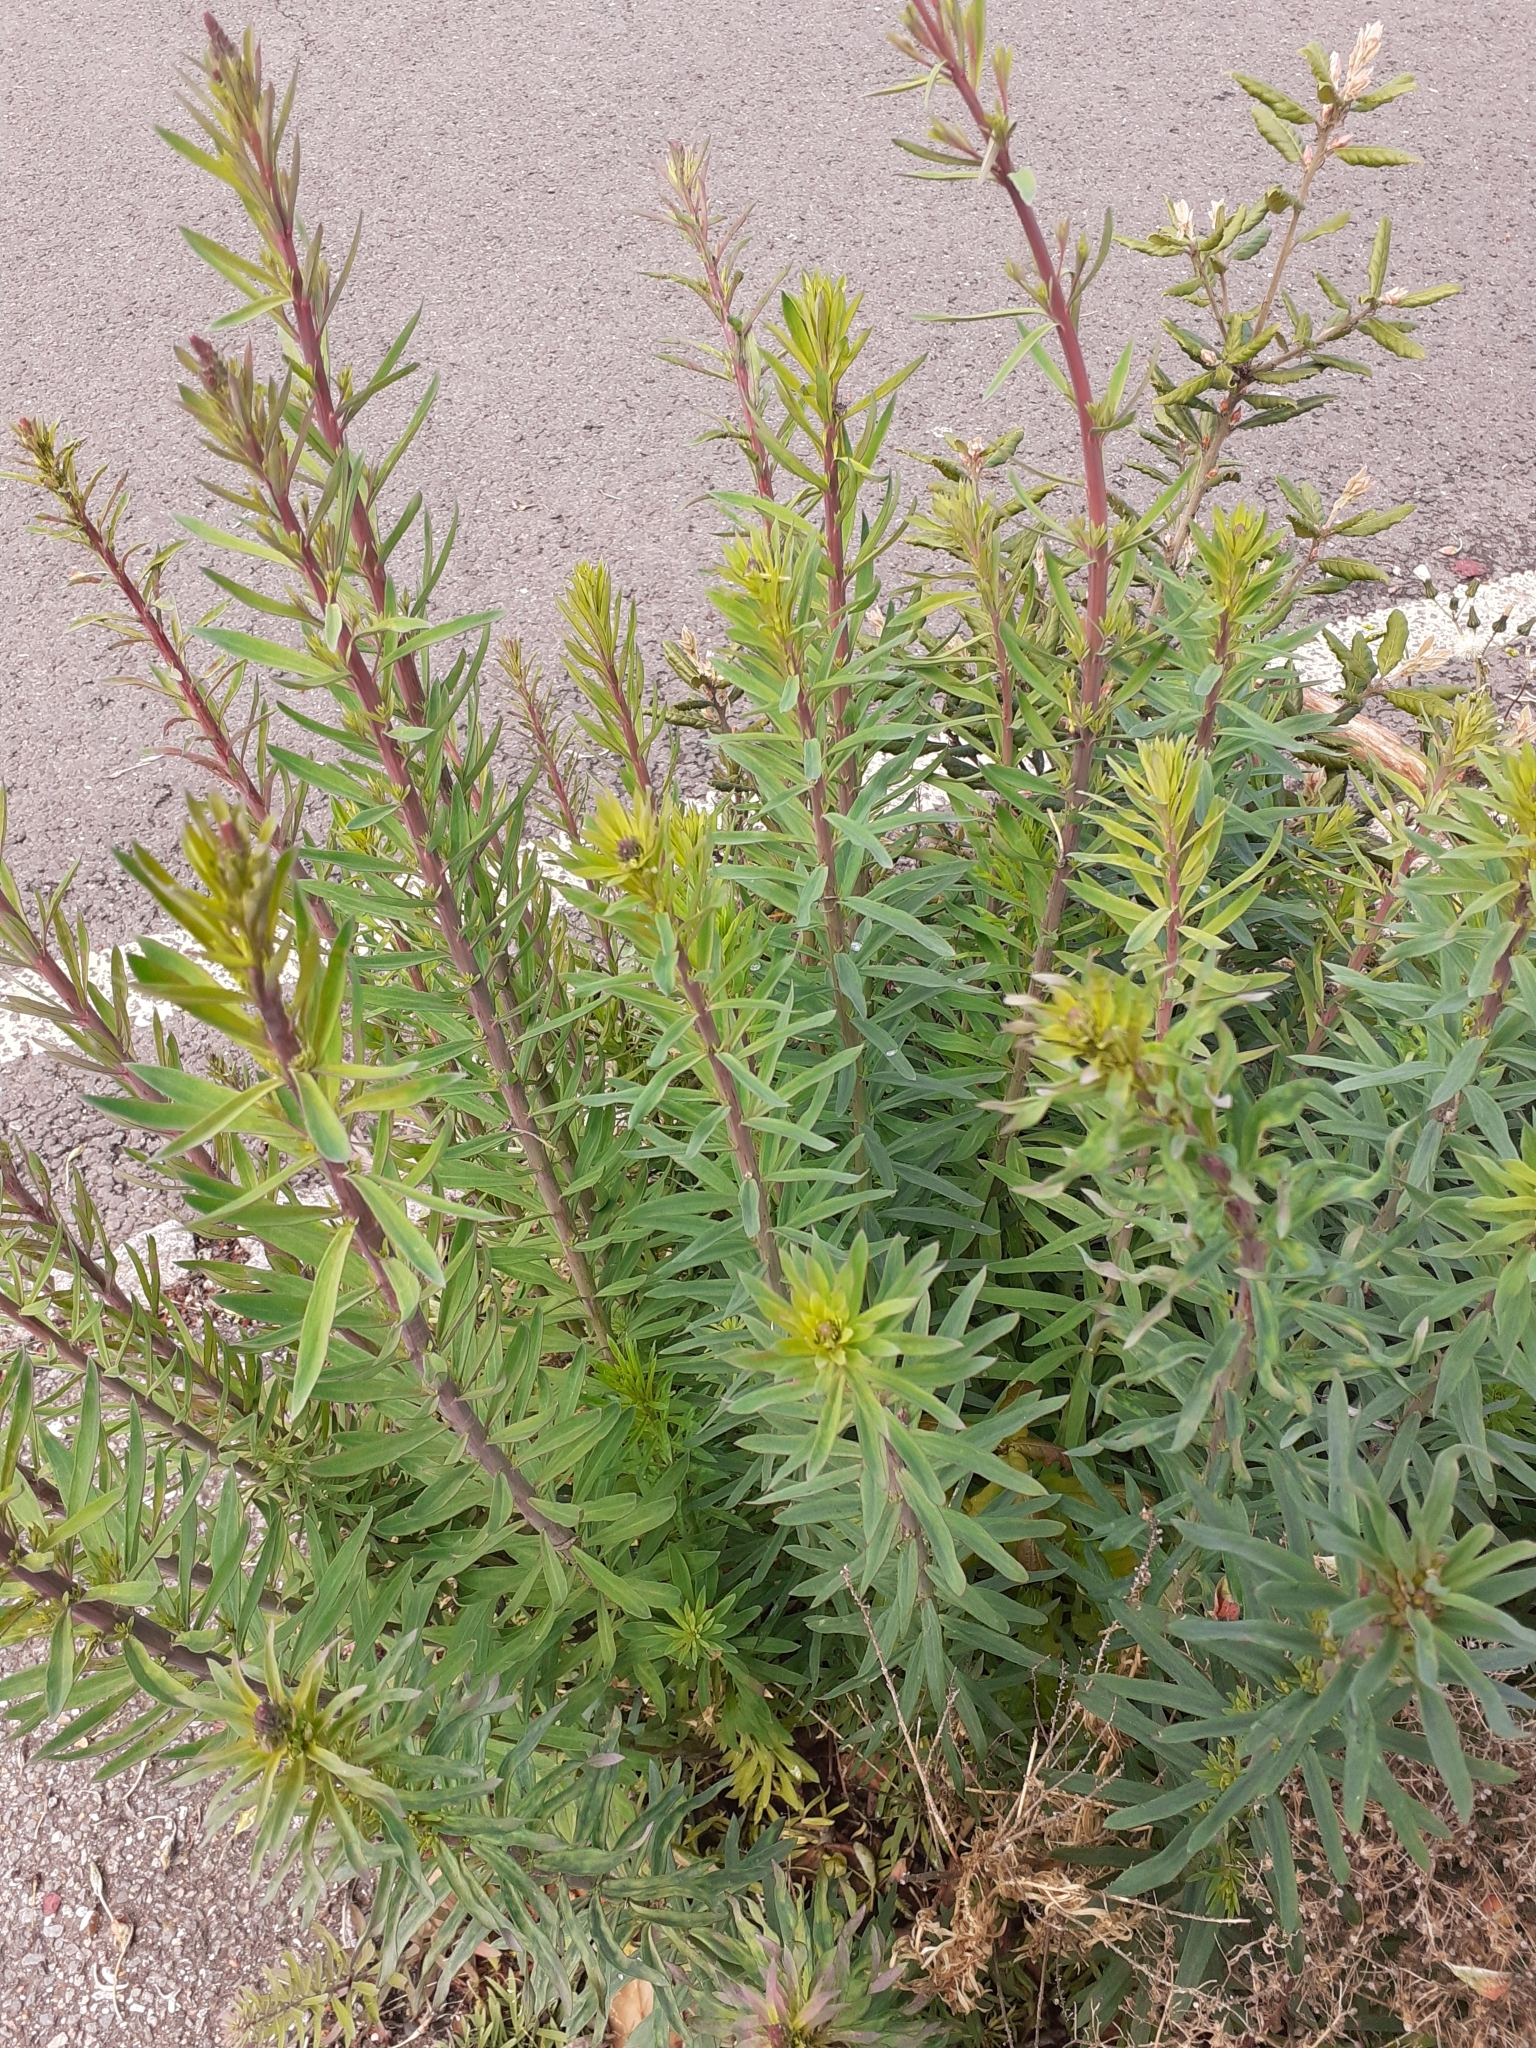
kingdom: Plantae
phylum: Tracheophyta
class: Magnoliopsida
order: Lamiales
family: Plantaginaceae
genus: Linaria
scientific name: Linaria purpurea
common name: Purple toadflax
